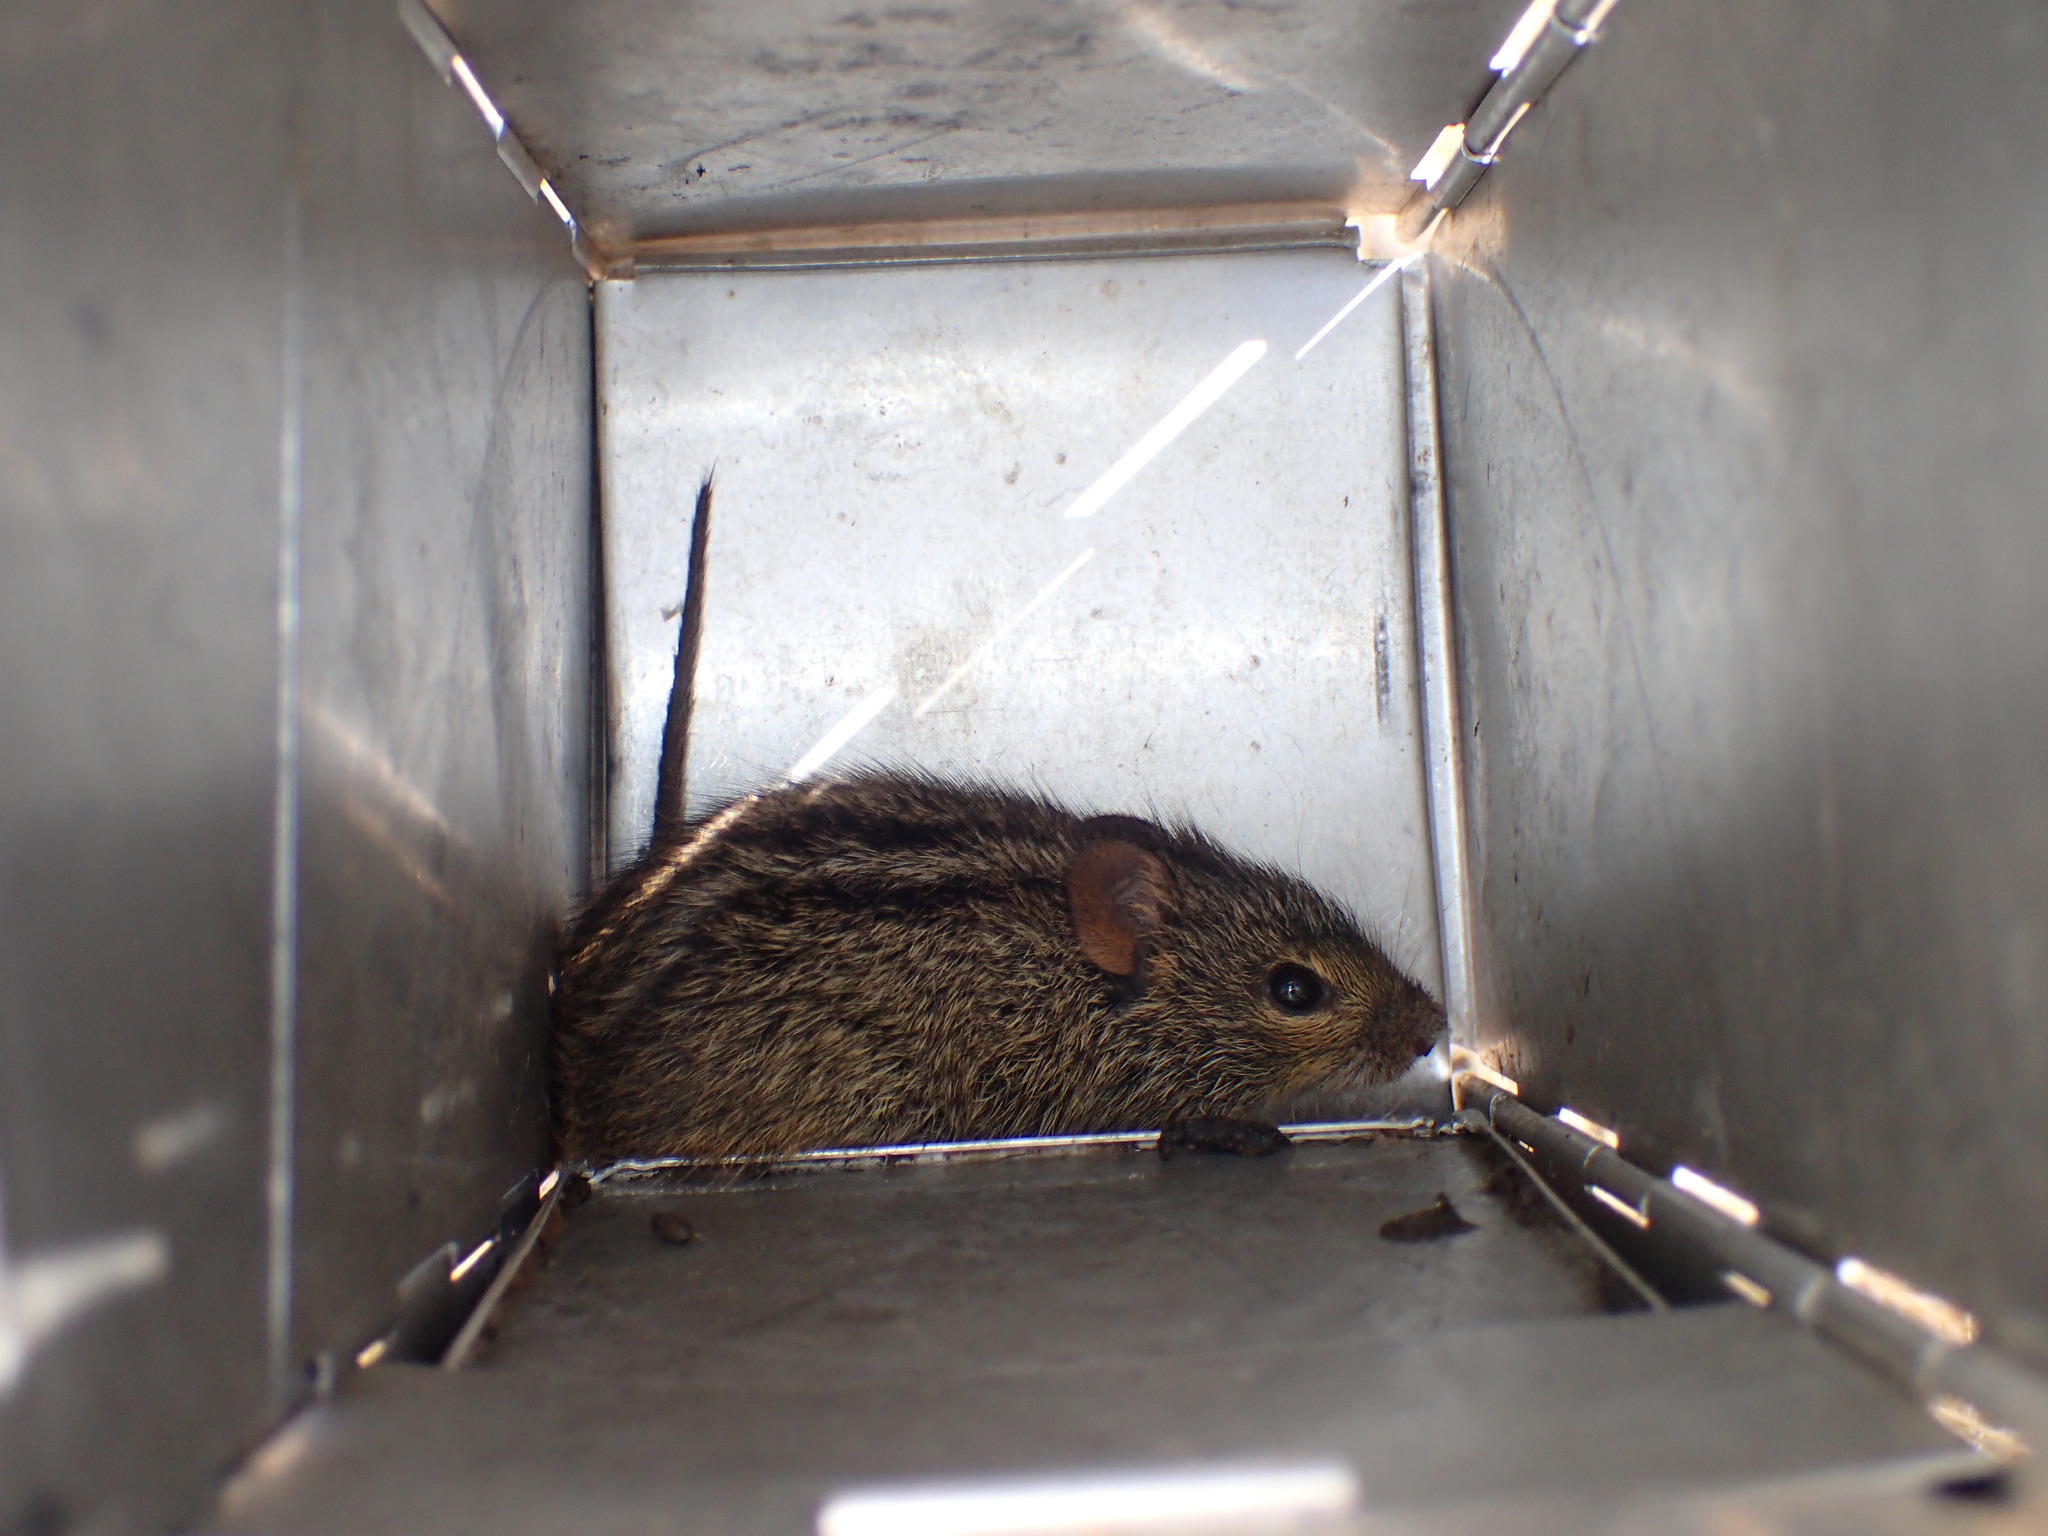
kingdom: Animalia
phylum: Chordata
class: Mammalia
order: Rodentia
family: Muridae
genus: Rhabdomys
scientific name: Rhabdomys dilectus
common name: Mesic four-striped grass rat
